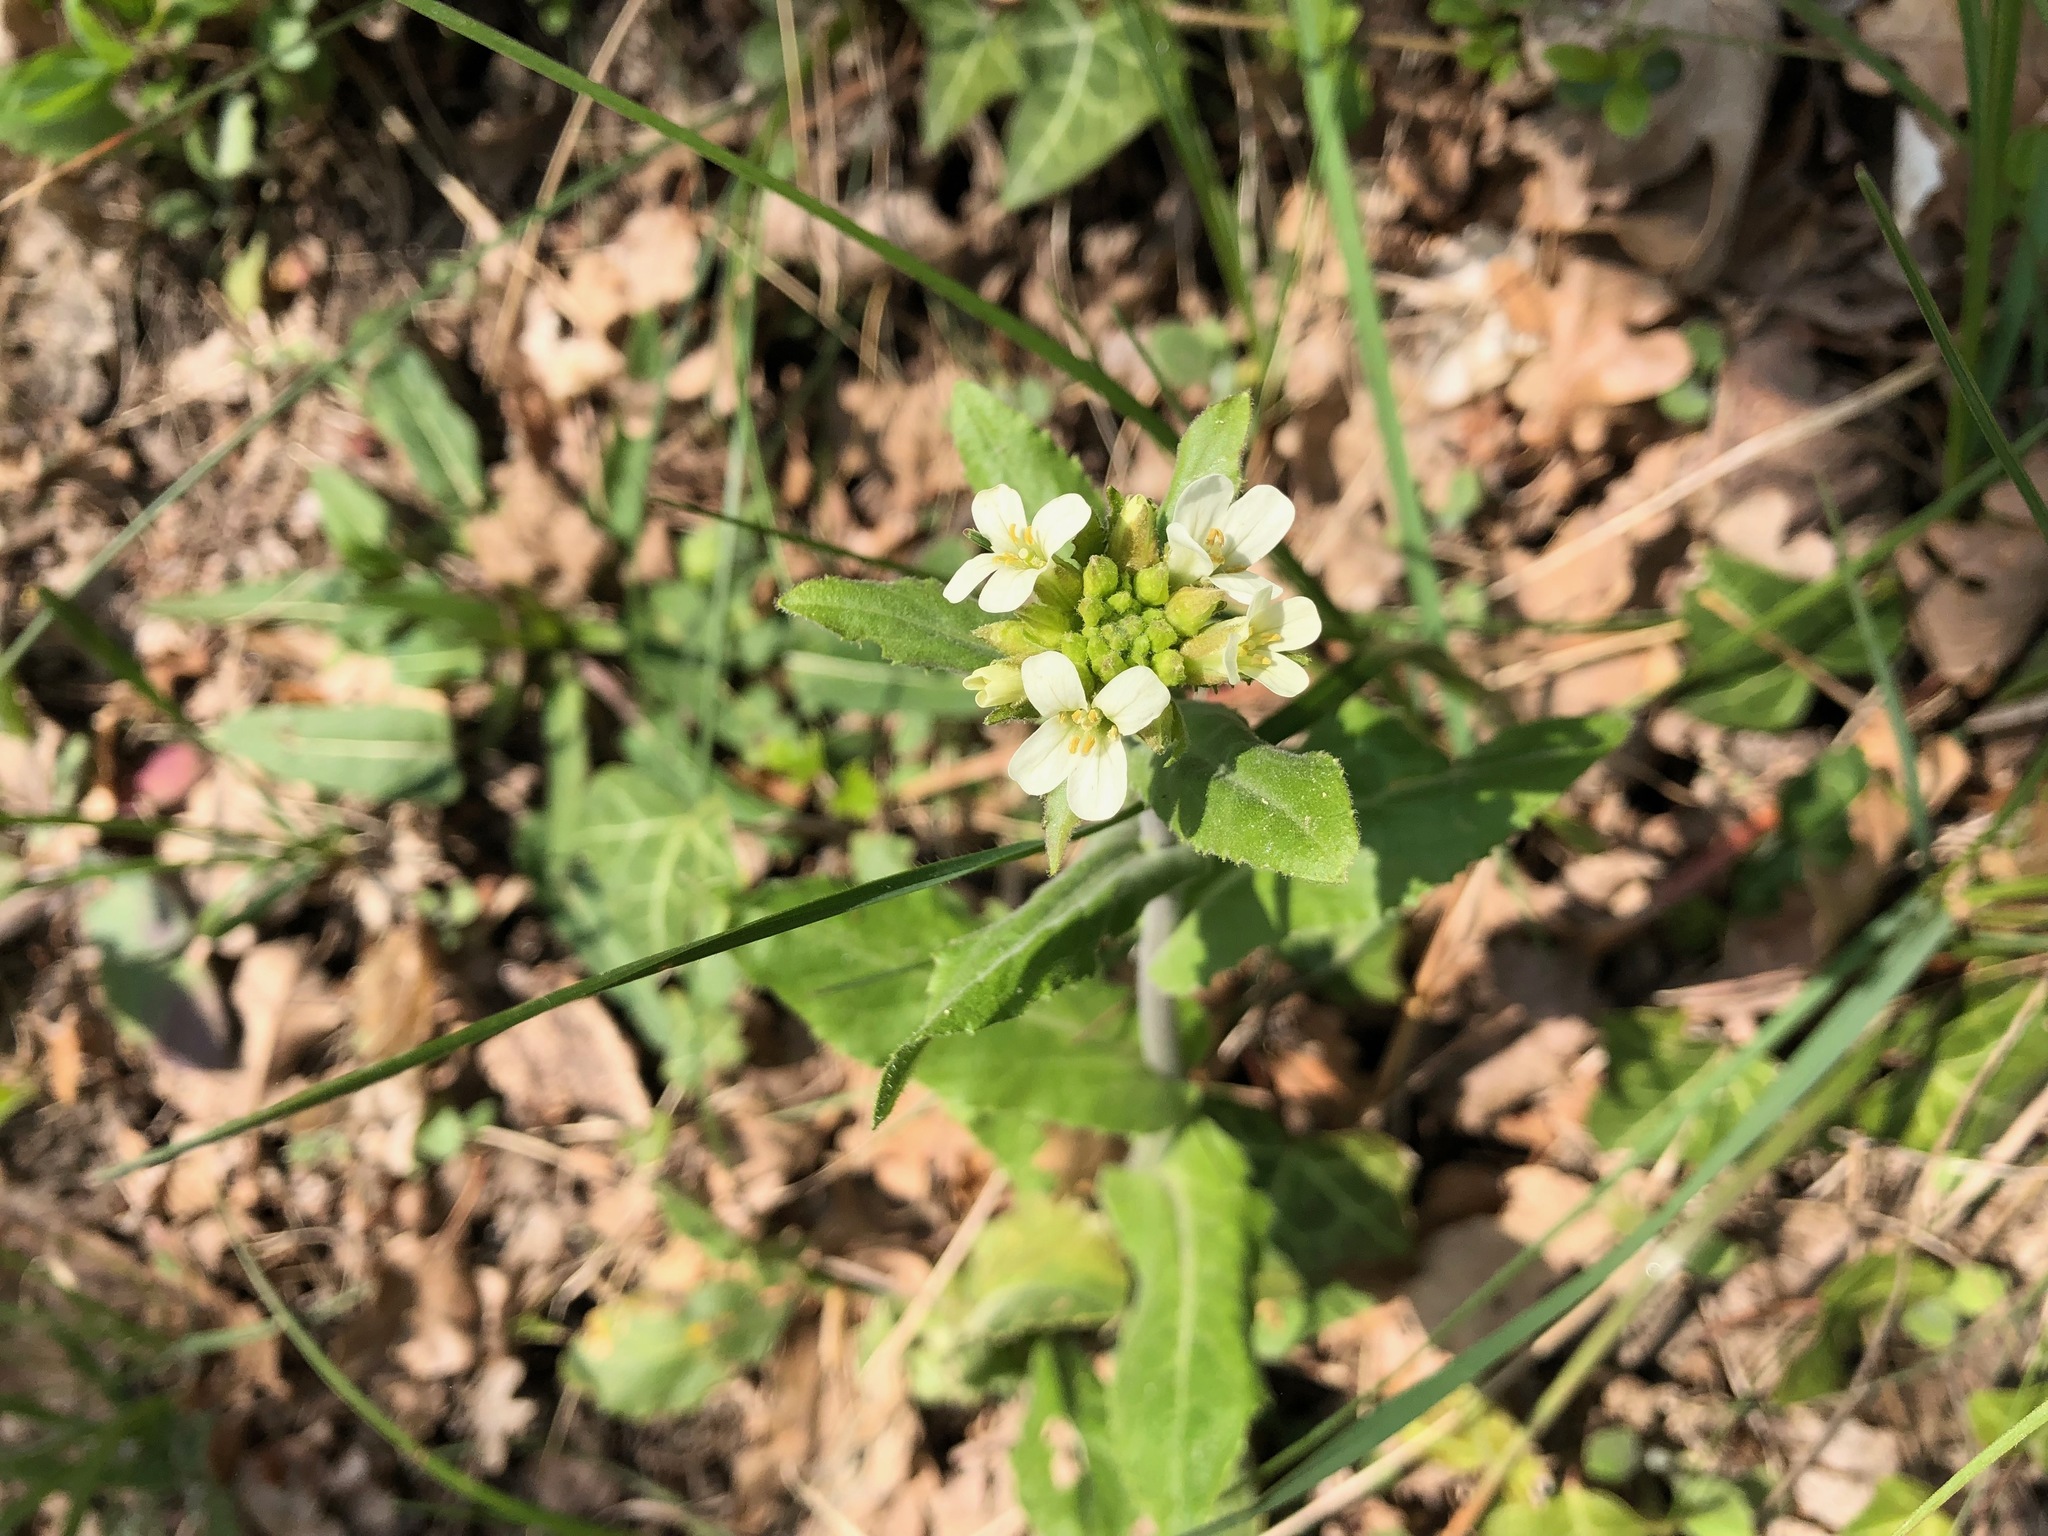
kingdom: Plantae
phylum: Tracheophyta
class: Magnoliopsida
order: Brassicales
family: Brassicaceae
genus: Pseudoturritis
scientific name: Pseudoturritis turrita
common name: Tower cress
